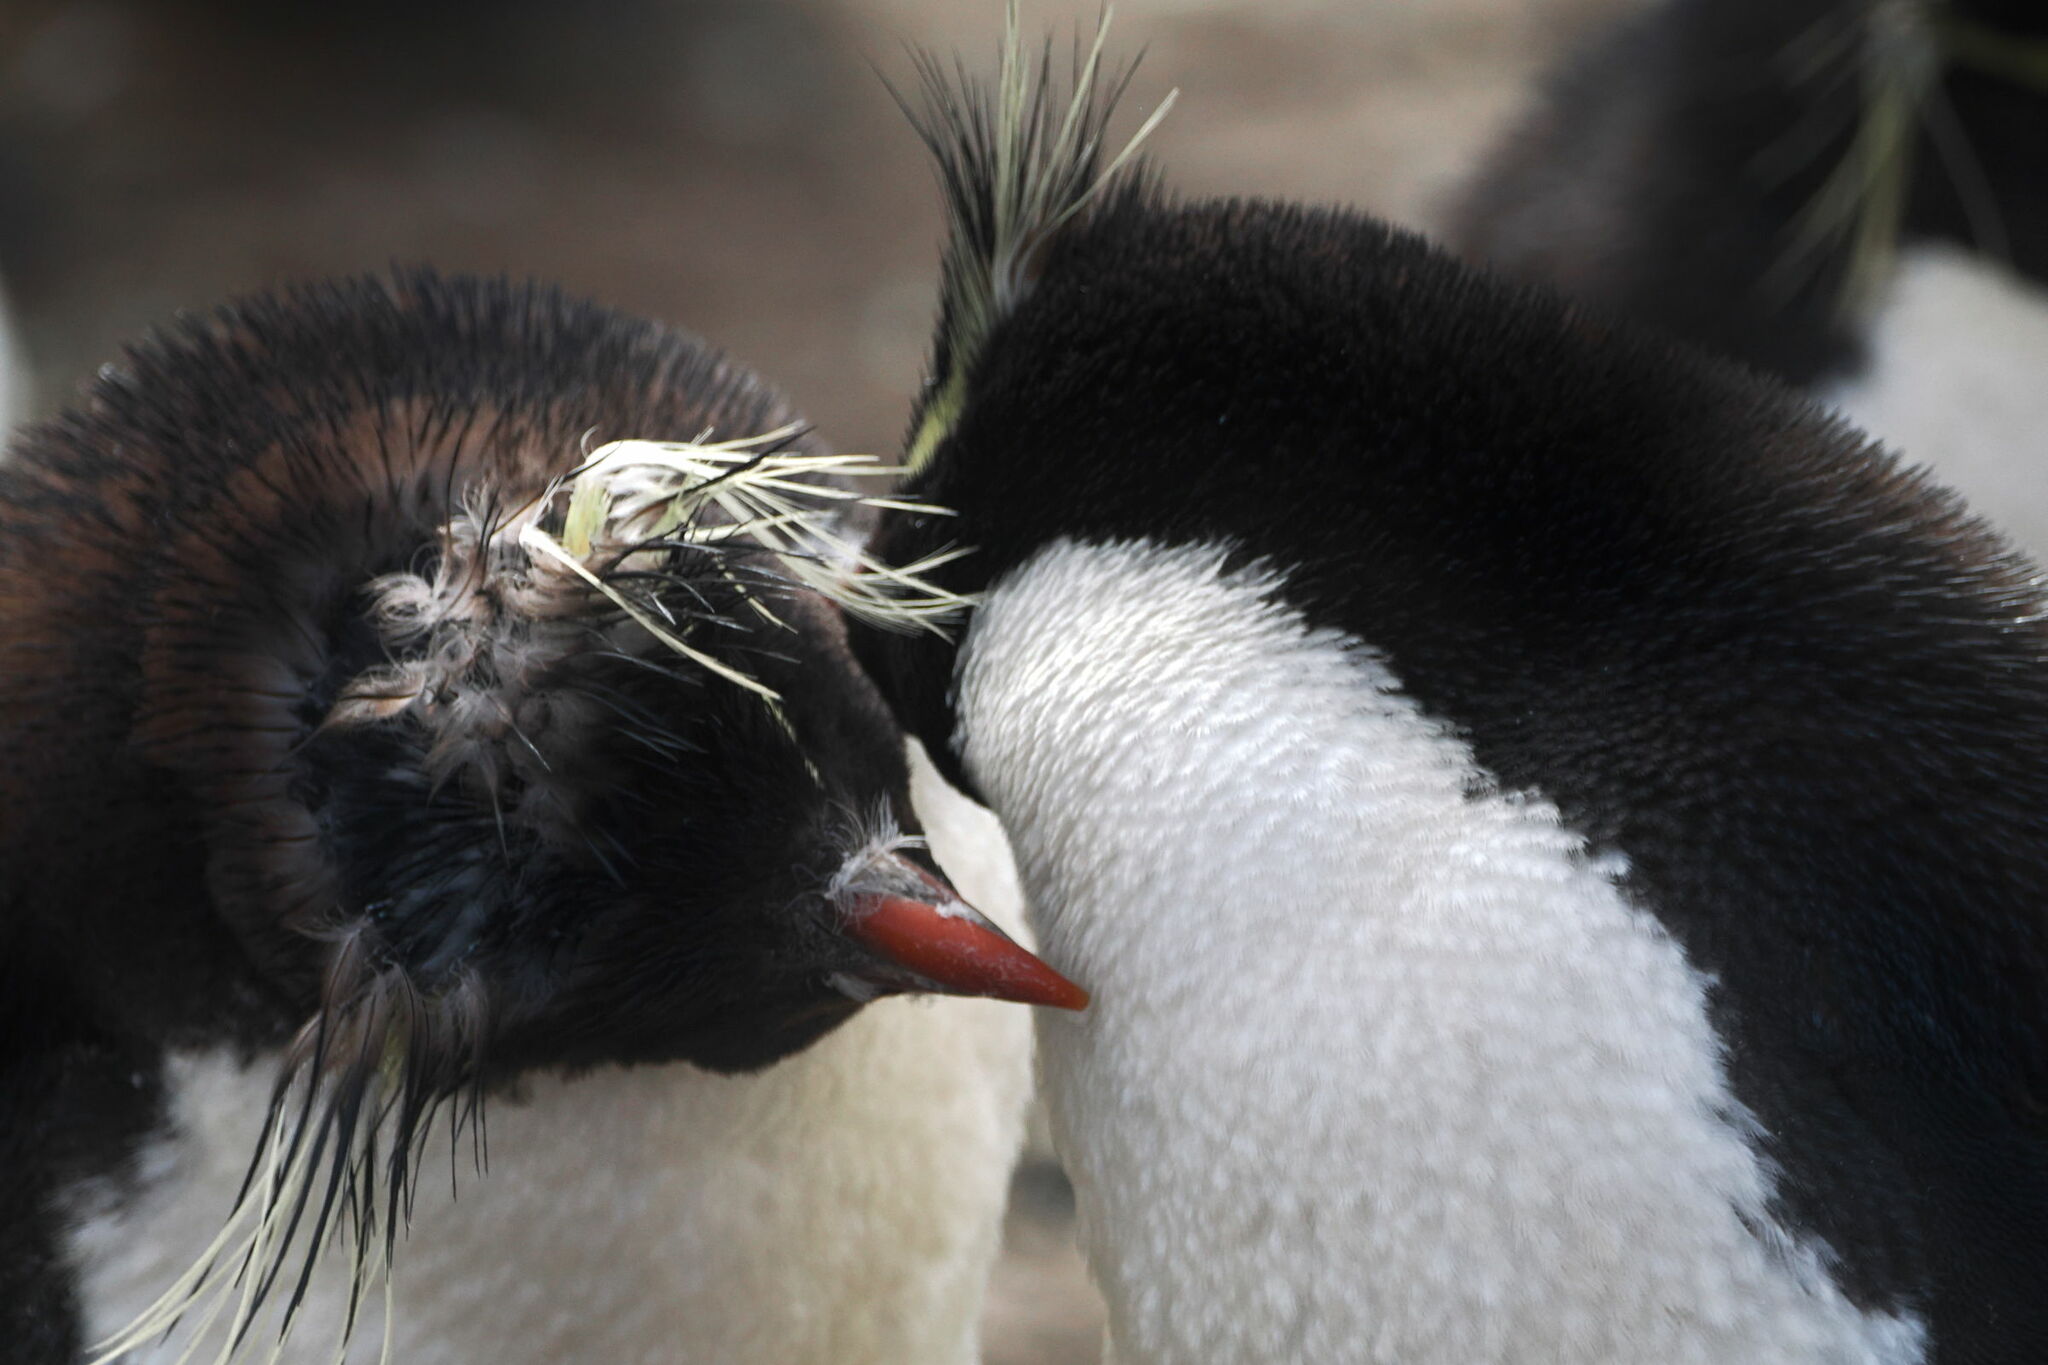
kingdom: Animalia
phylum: Chordata
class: Aves
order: Sphenisciformes
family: Spheniscidae
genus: Eudyptes
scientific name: Eudyptes chrysocome
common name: Southern rockhopper penguin
